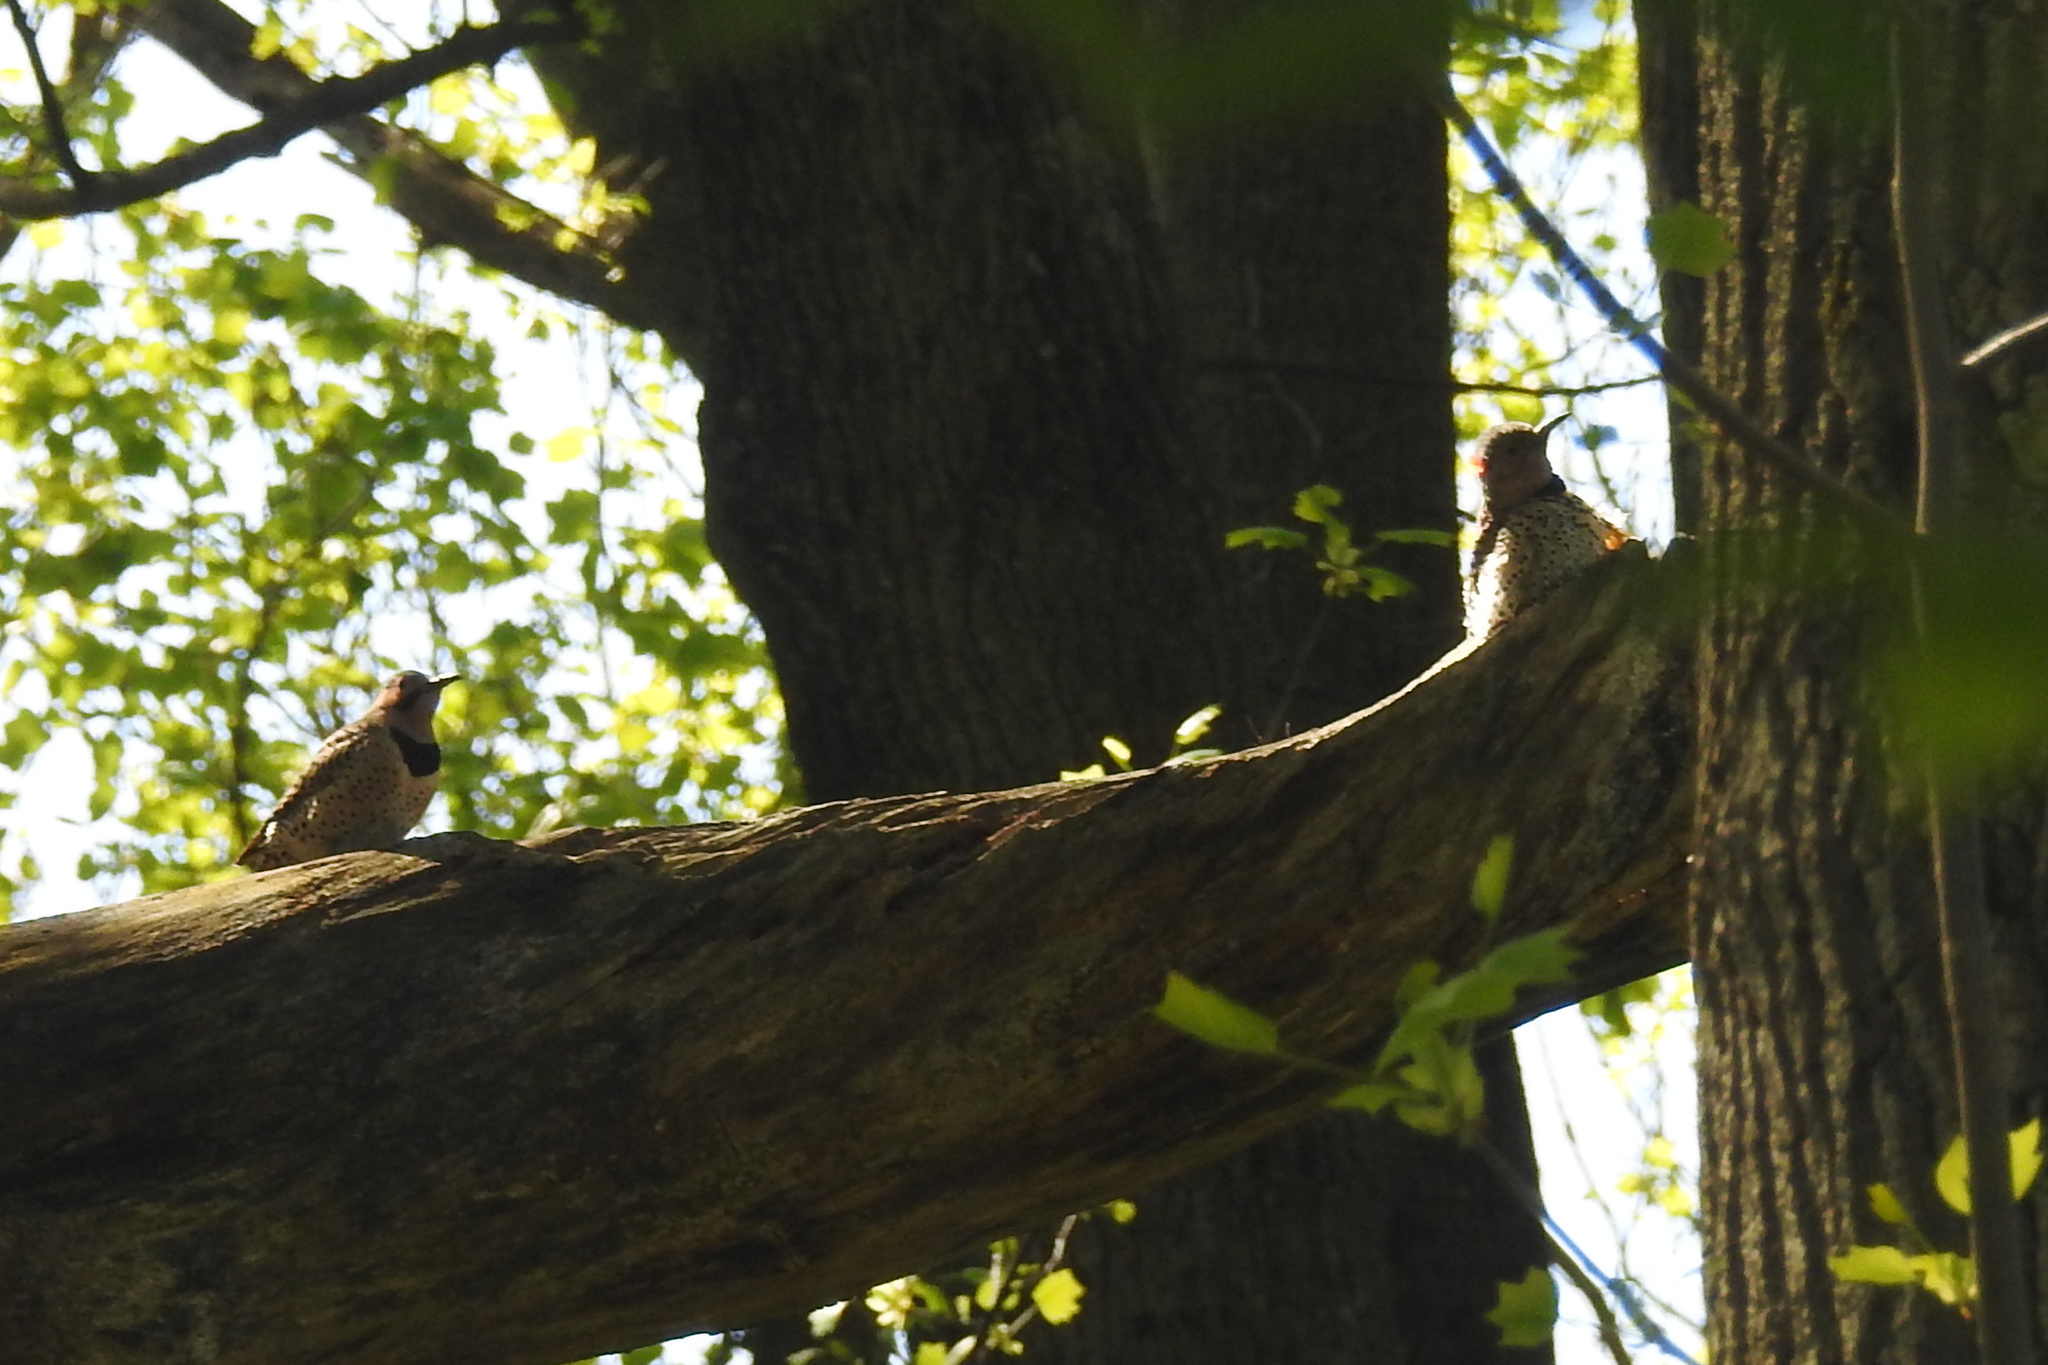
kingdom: Animalia
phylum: Chordata
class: Aves
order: Piciformes
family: Picidae
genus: Colaptes
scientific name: Colaptes auratus
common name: Northern flicker
